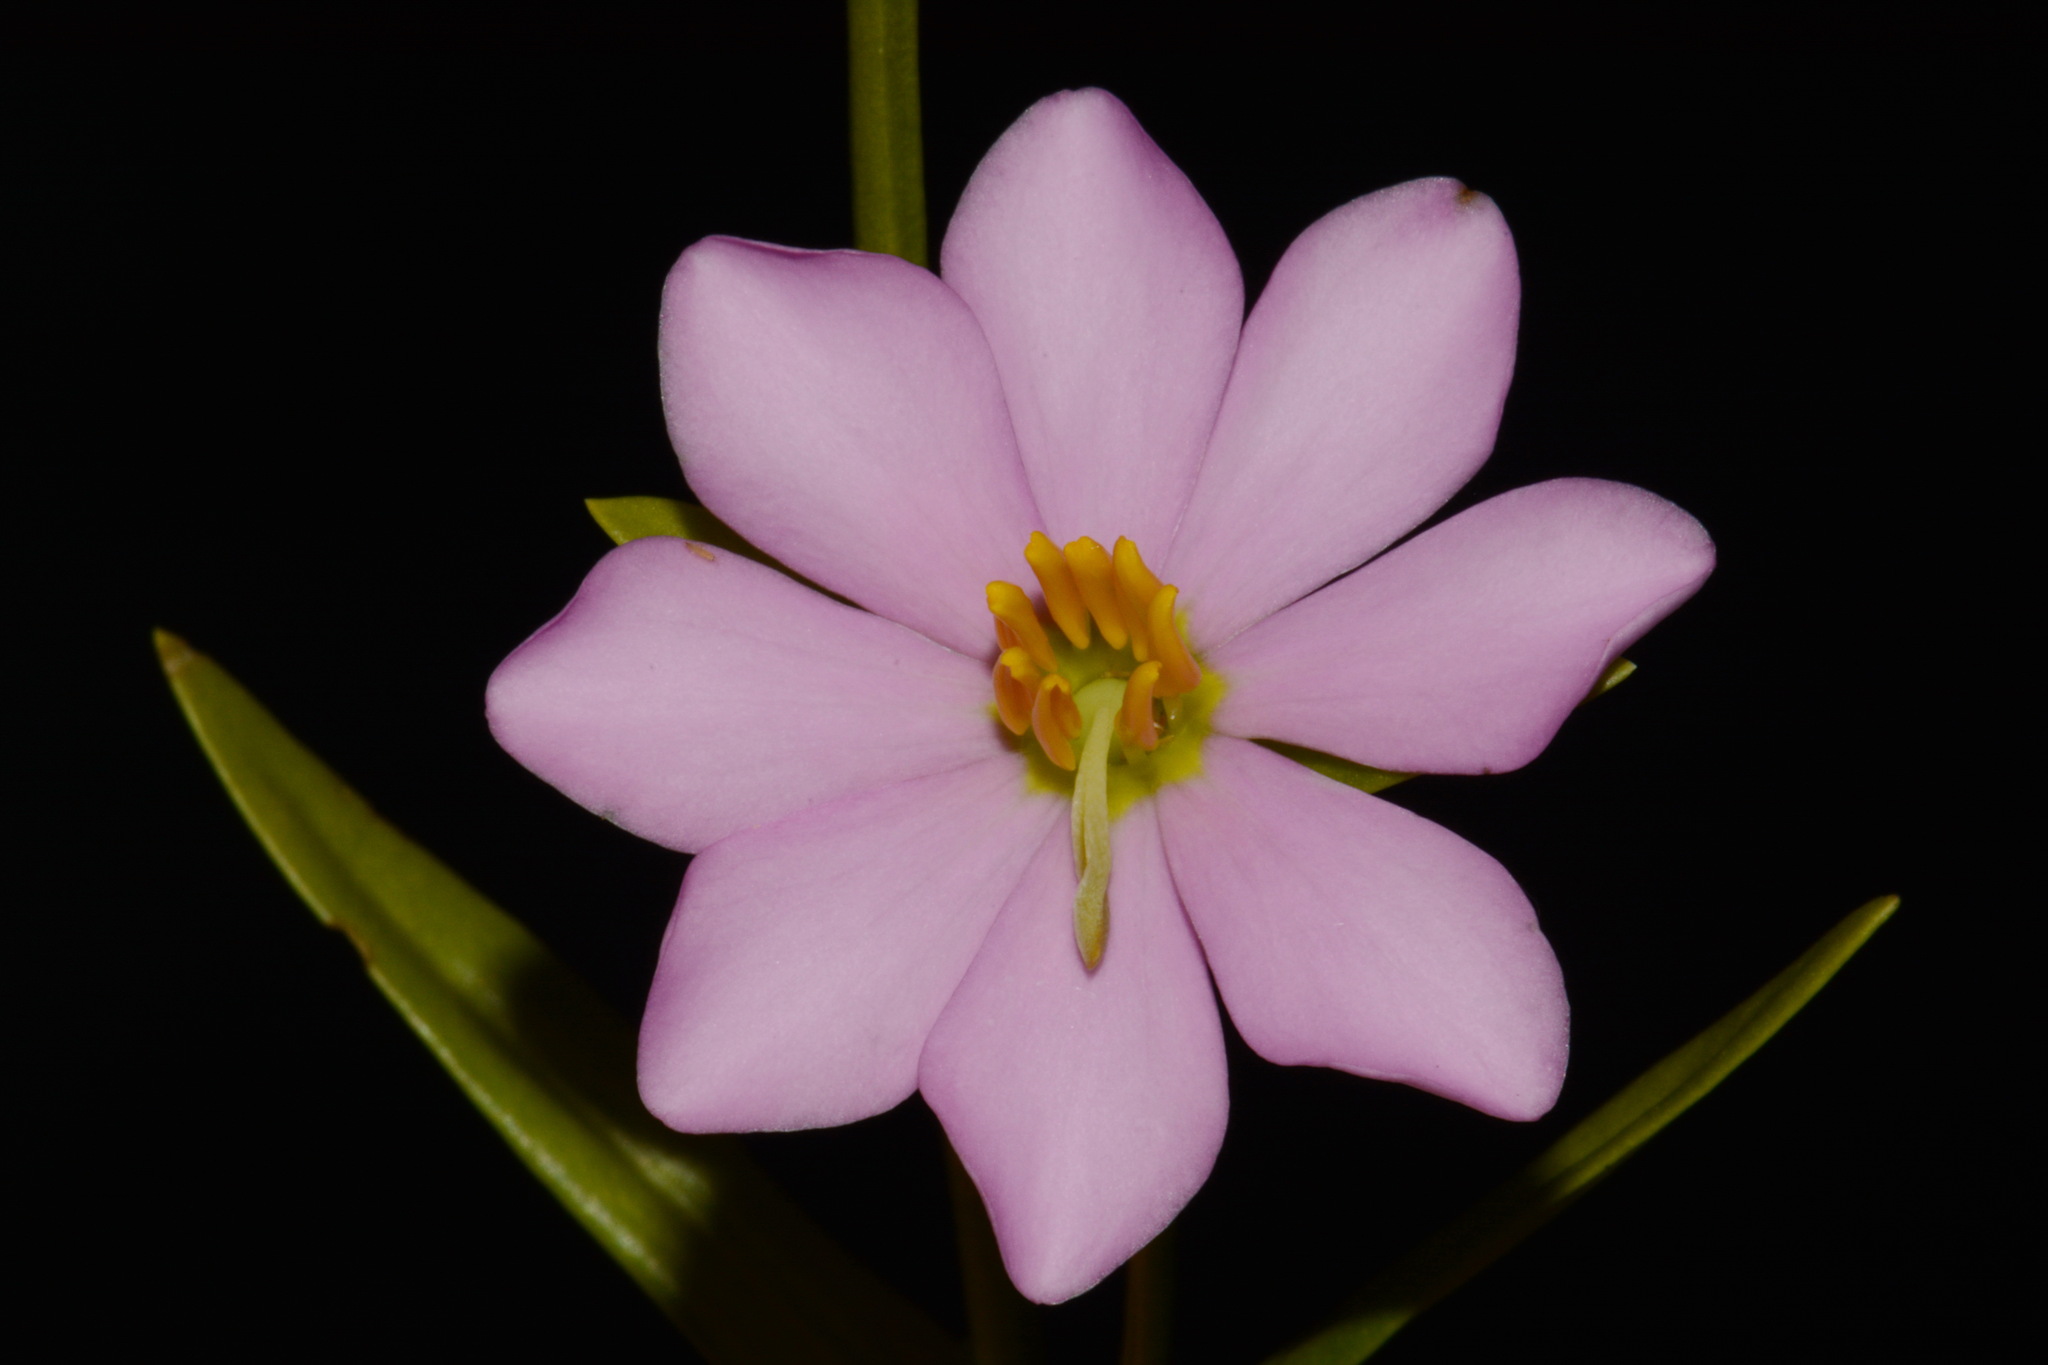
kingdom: Plantae
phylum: Tracheophyta
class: Magnoliopsida
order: Gentianales
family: Gentianaceae
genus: Sabatia
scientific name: Sabatia capitata
